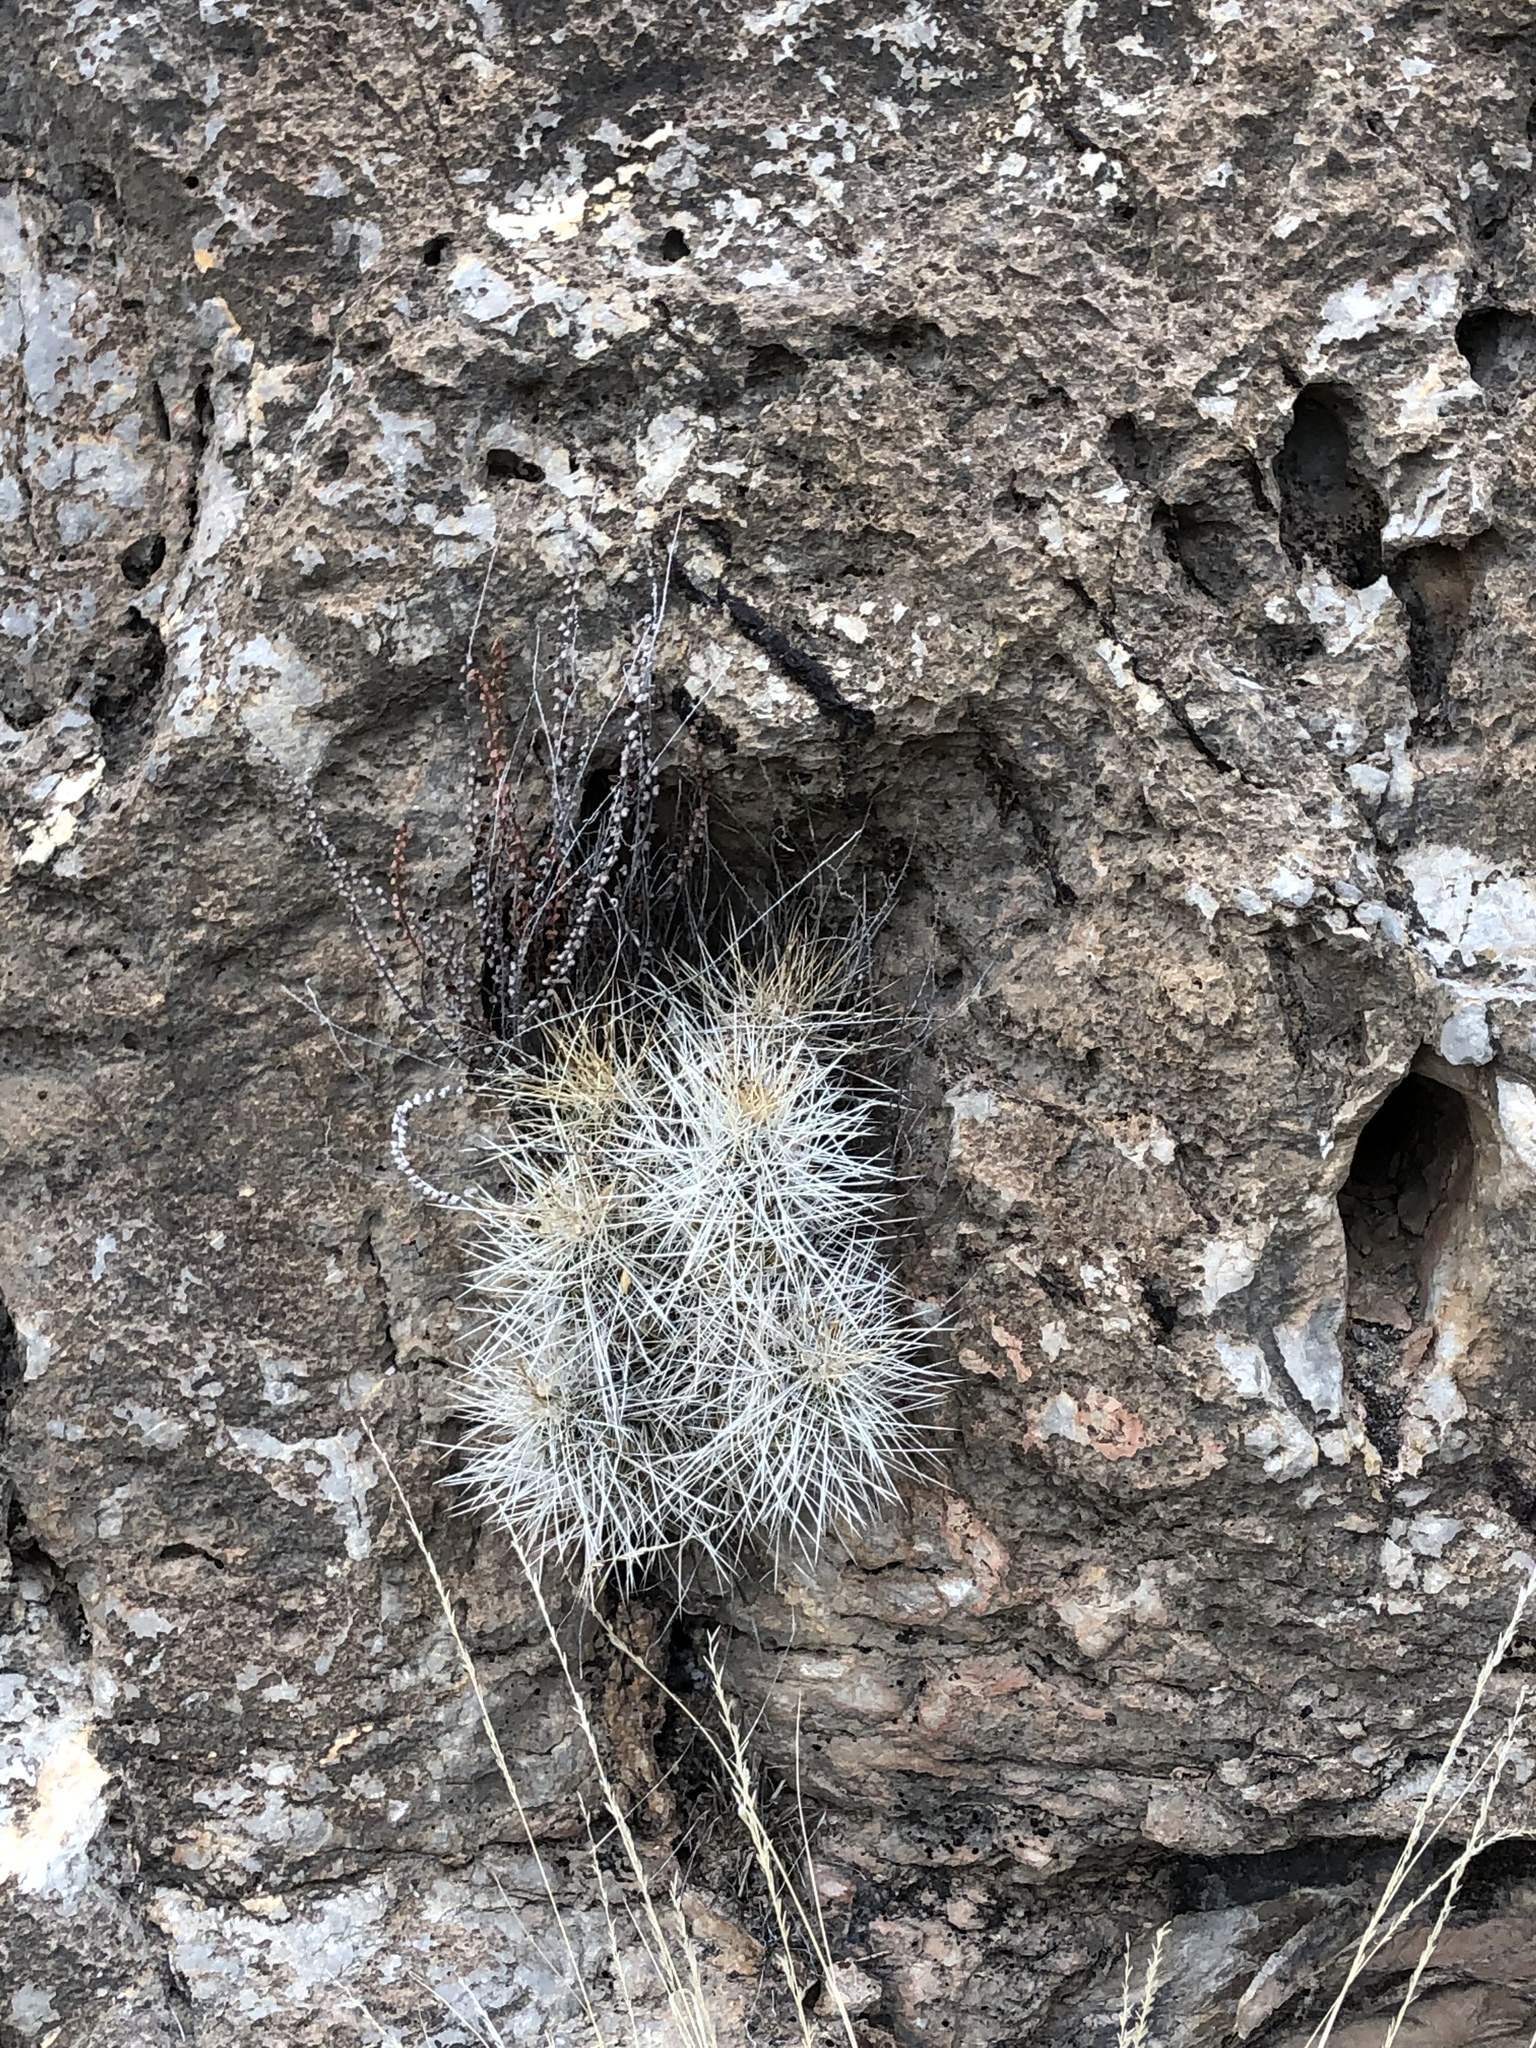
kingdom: Plantae
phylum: Tracheophyta
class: Magnoliopsida
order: Caryophyllales
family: Cactaceae
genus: Echinocereus
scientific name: Echinocereus stramineus
